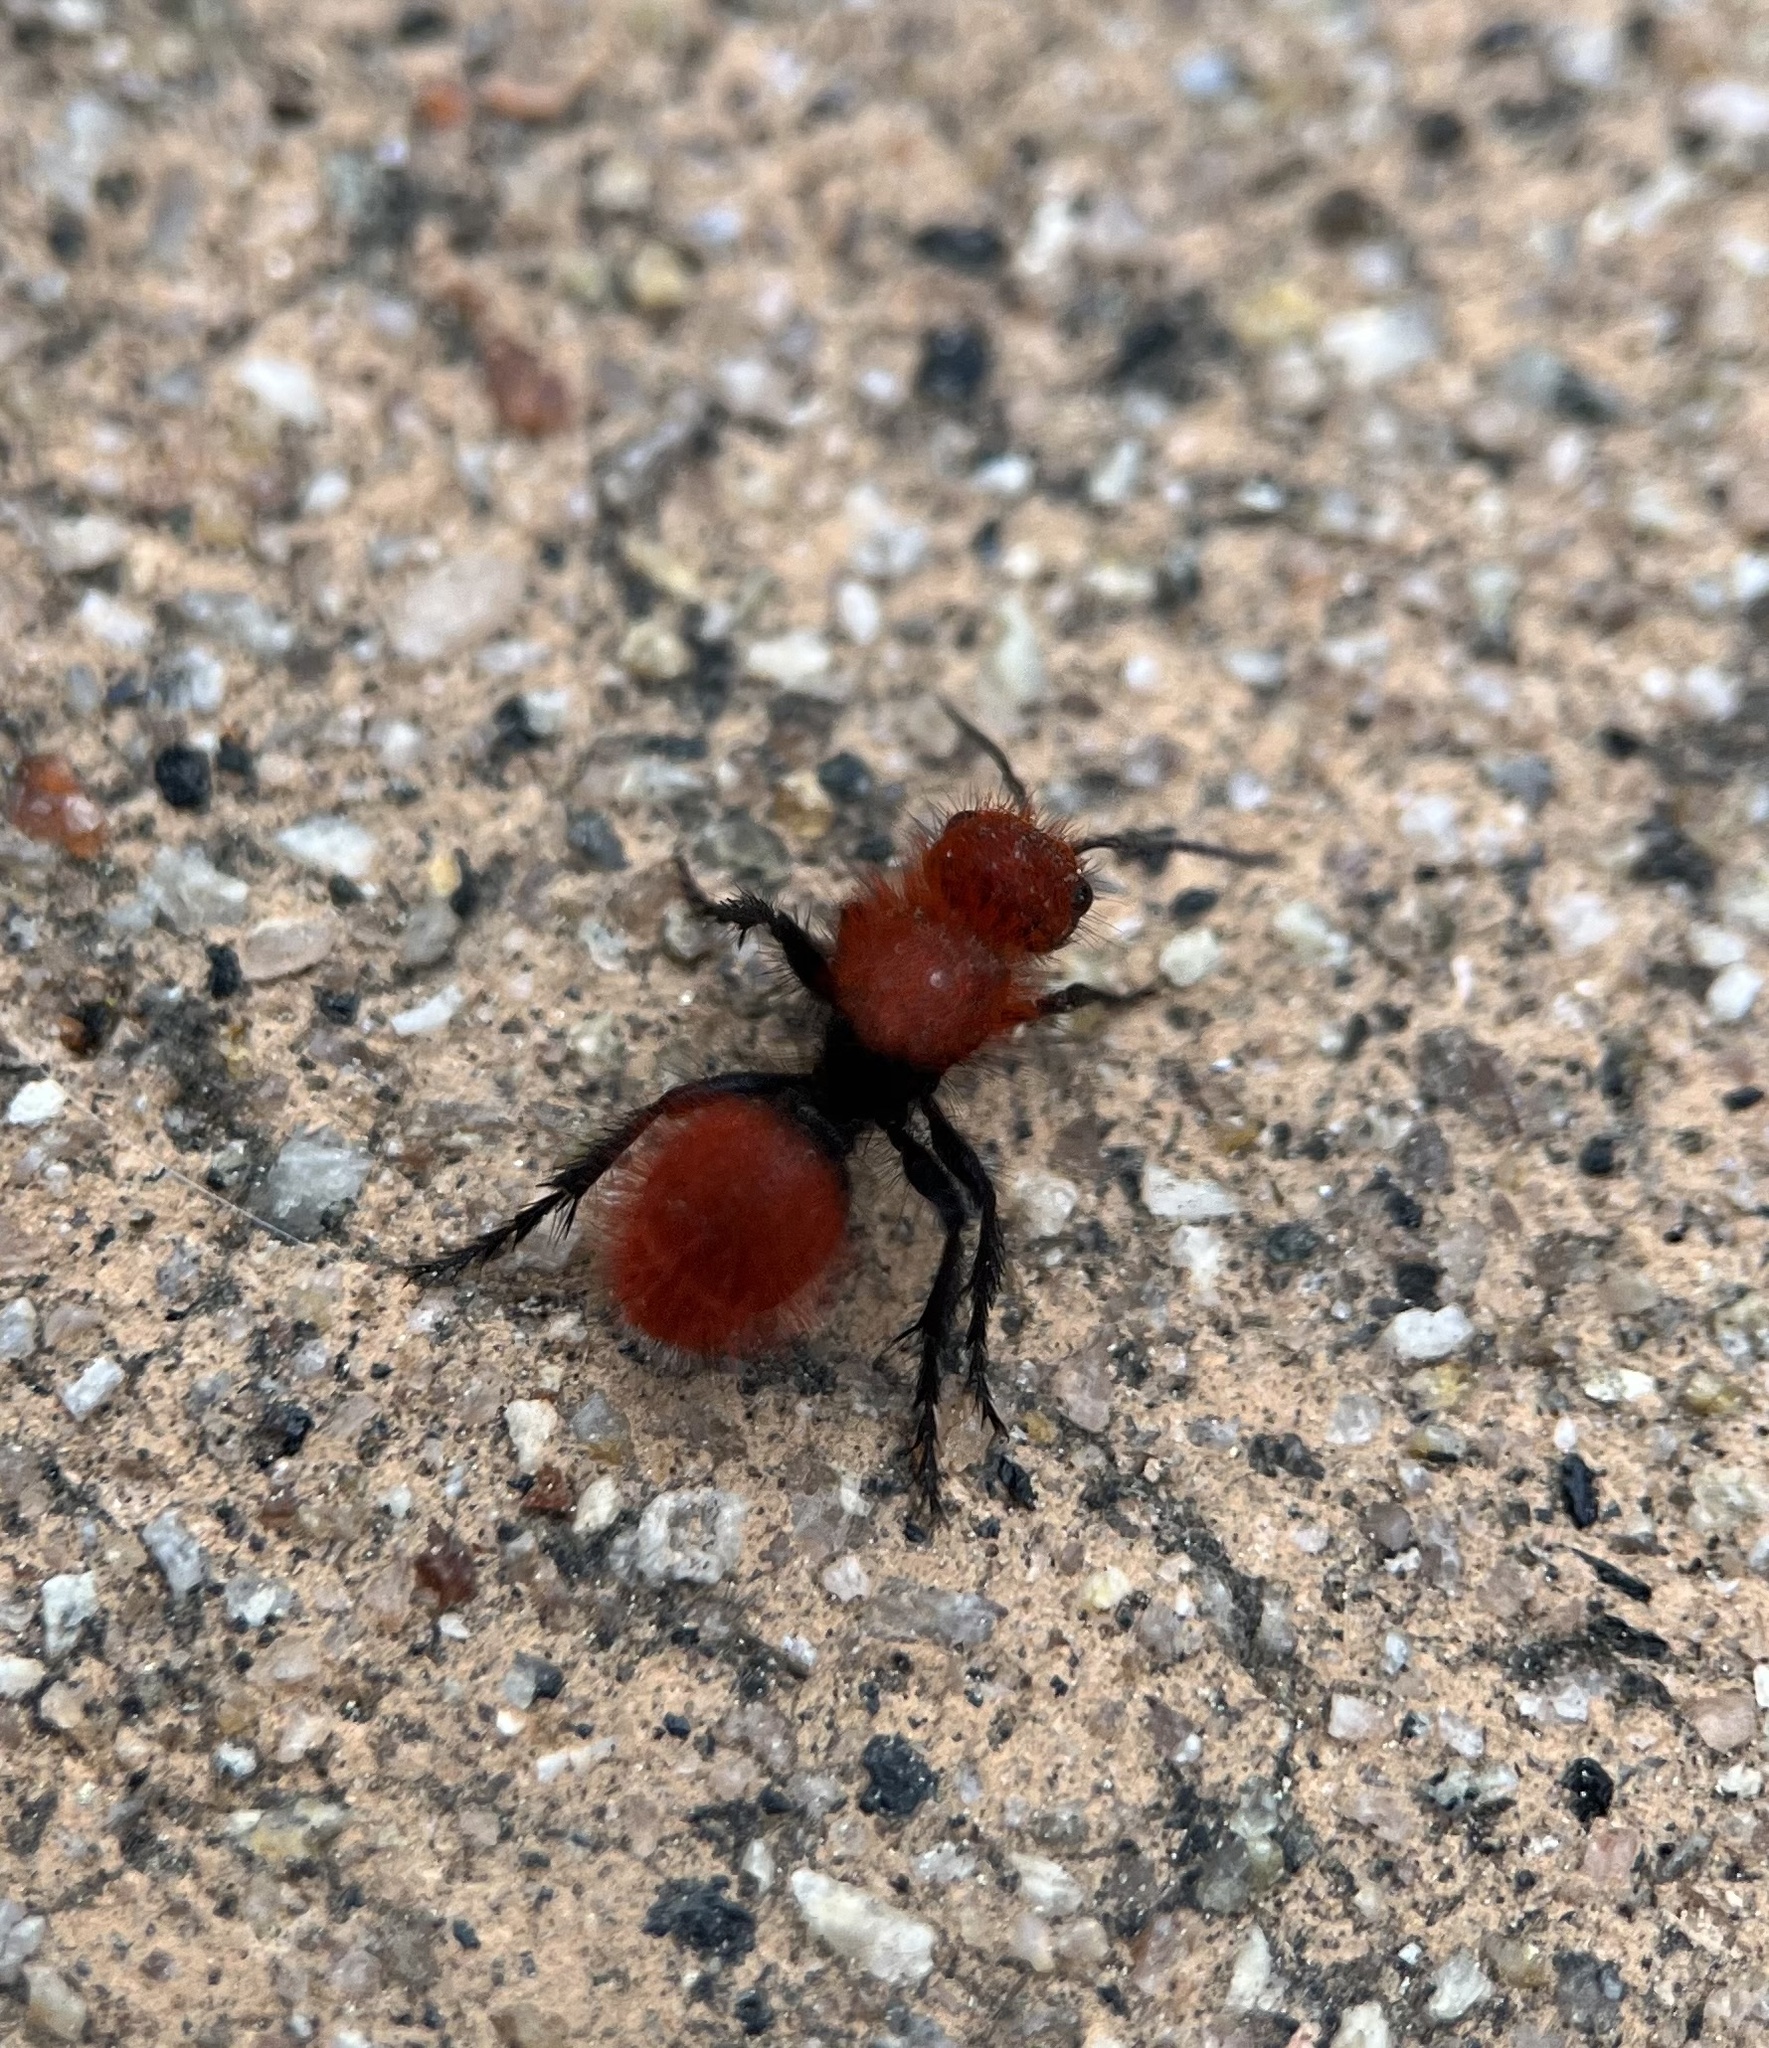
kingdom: Animalia
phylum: Arthropoda
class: Insecta
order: Hymenoptera
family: Mutillidae
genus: Dasymutilla
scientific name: Dasymutilla
